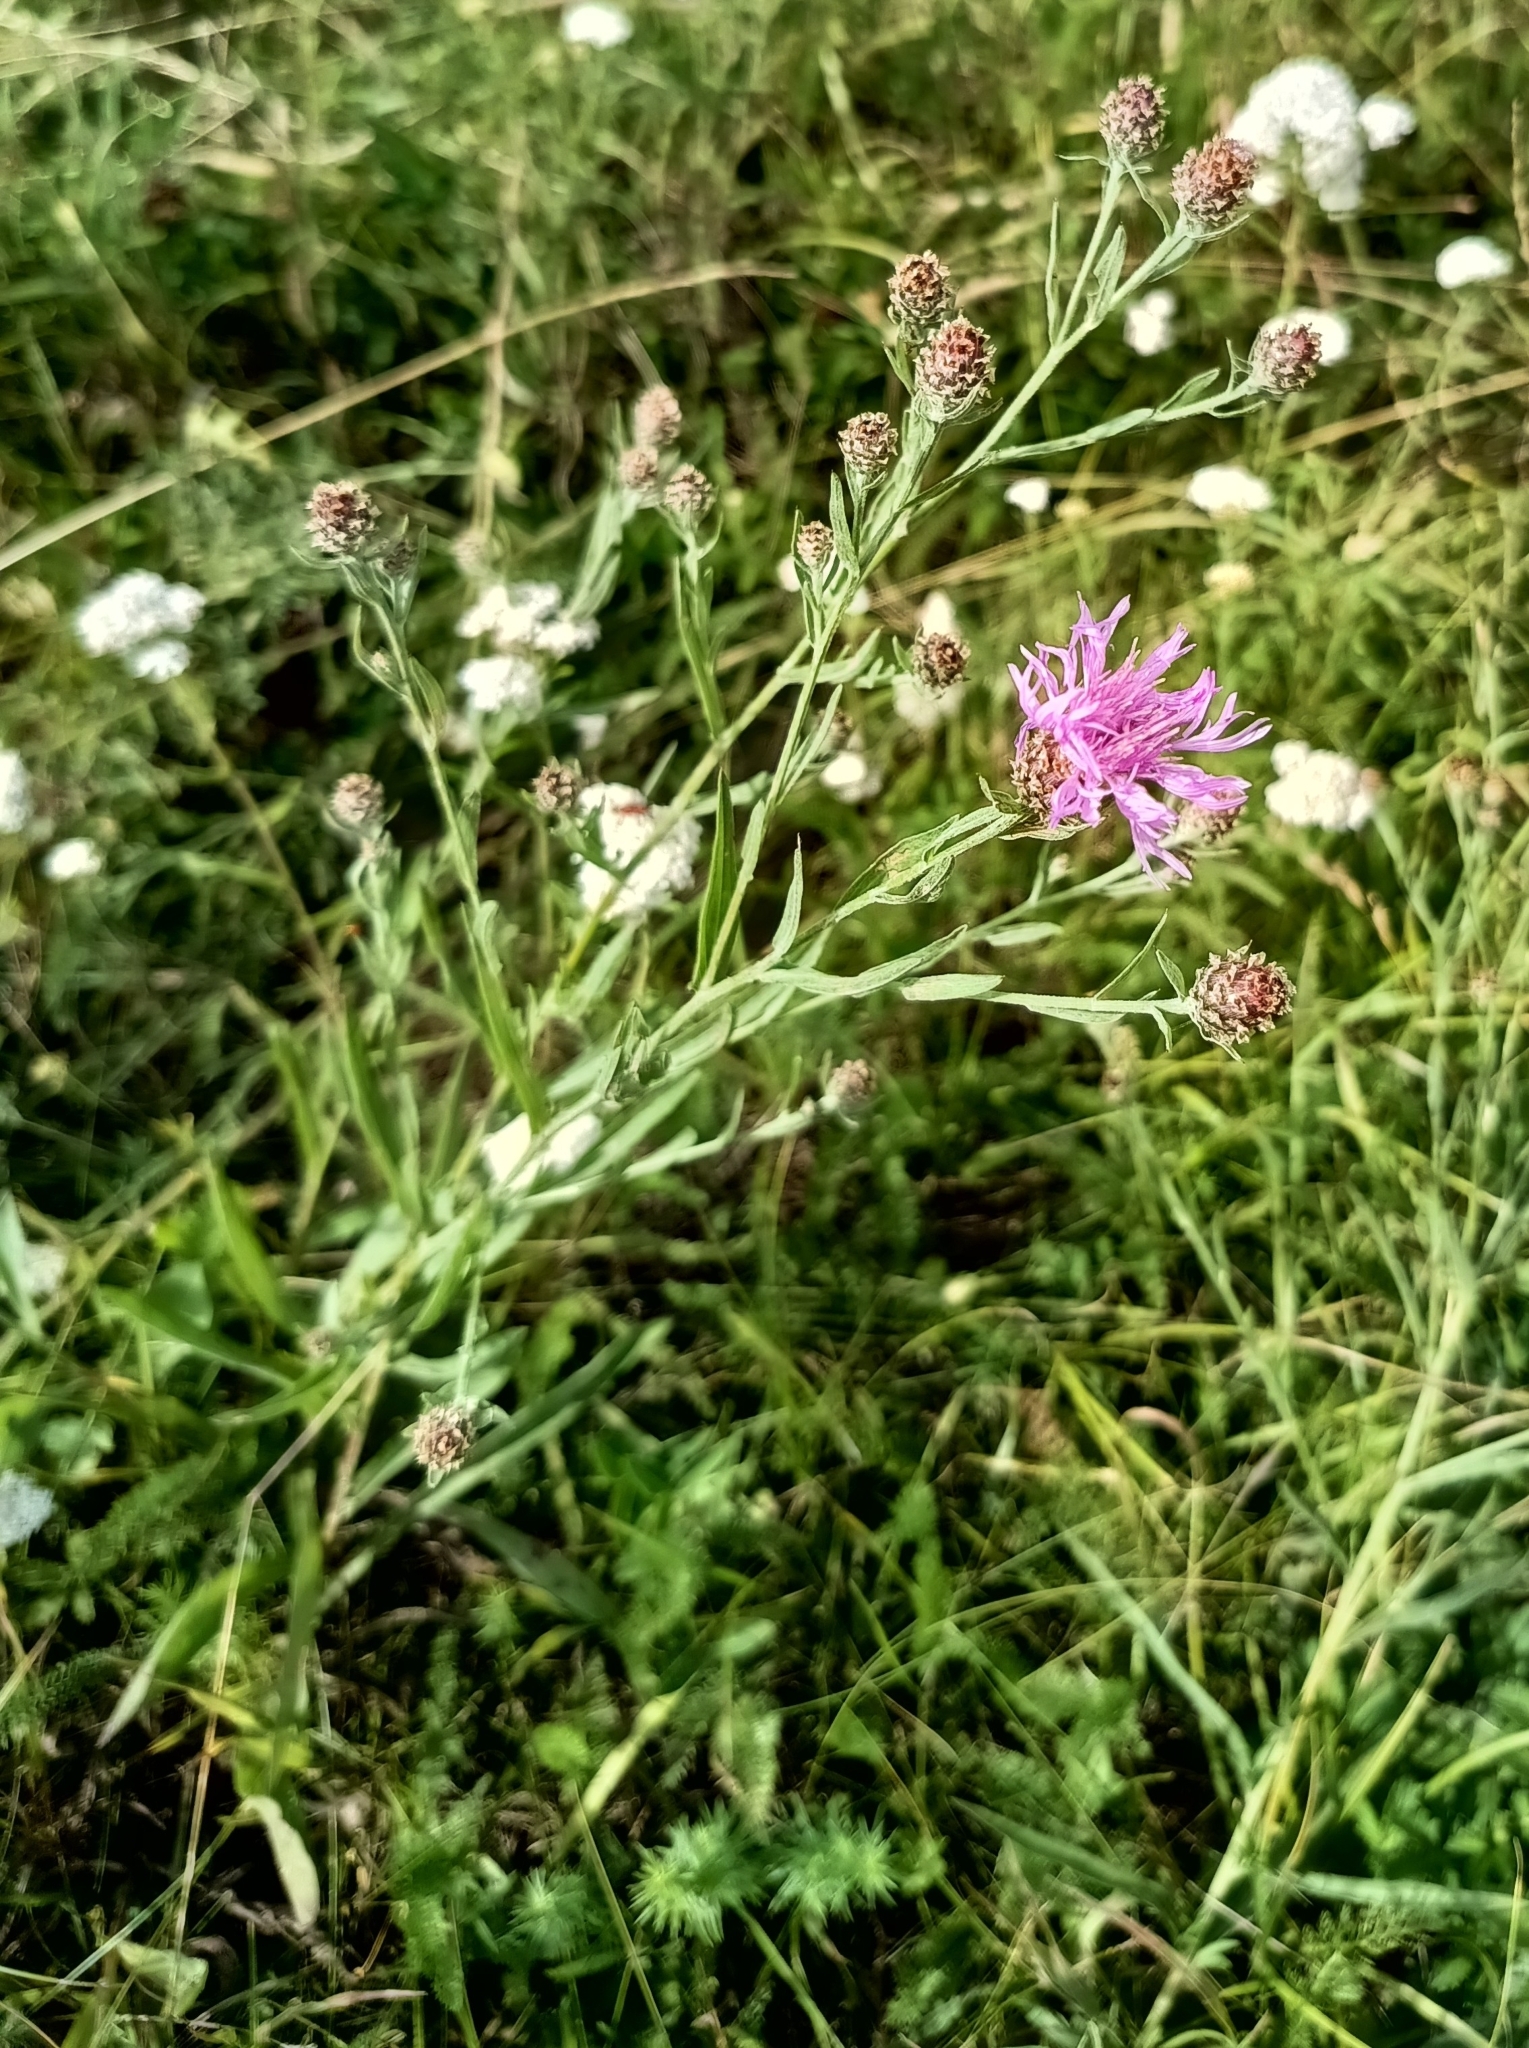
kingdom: Plantae
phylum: Tracheophyta
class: Magnoliopsida
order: Asterales
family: Asteraceae
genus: Centaurea
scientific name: Centaurea jacea
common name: Brown knapweed
